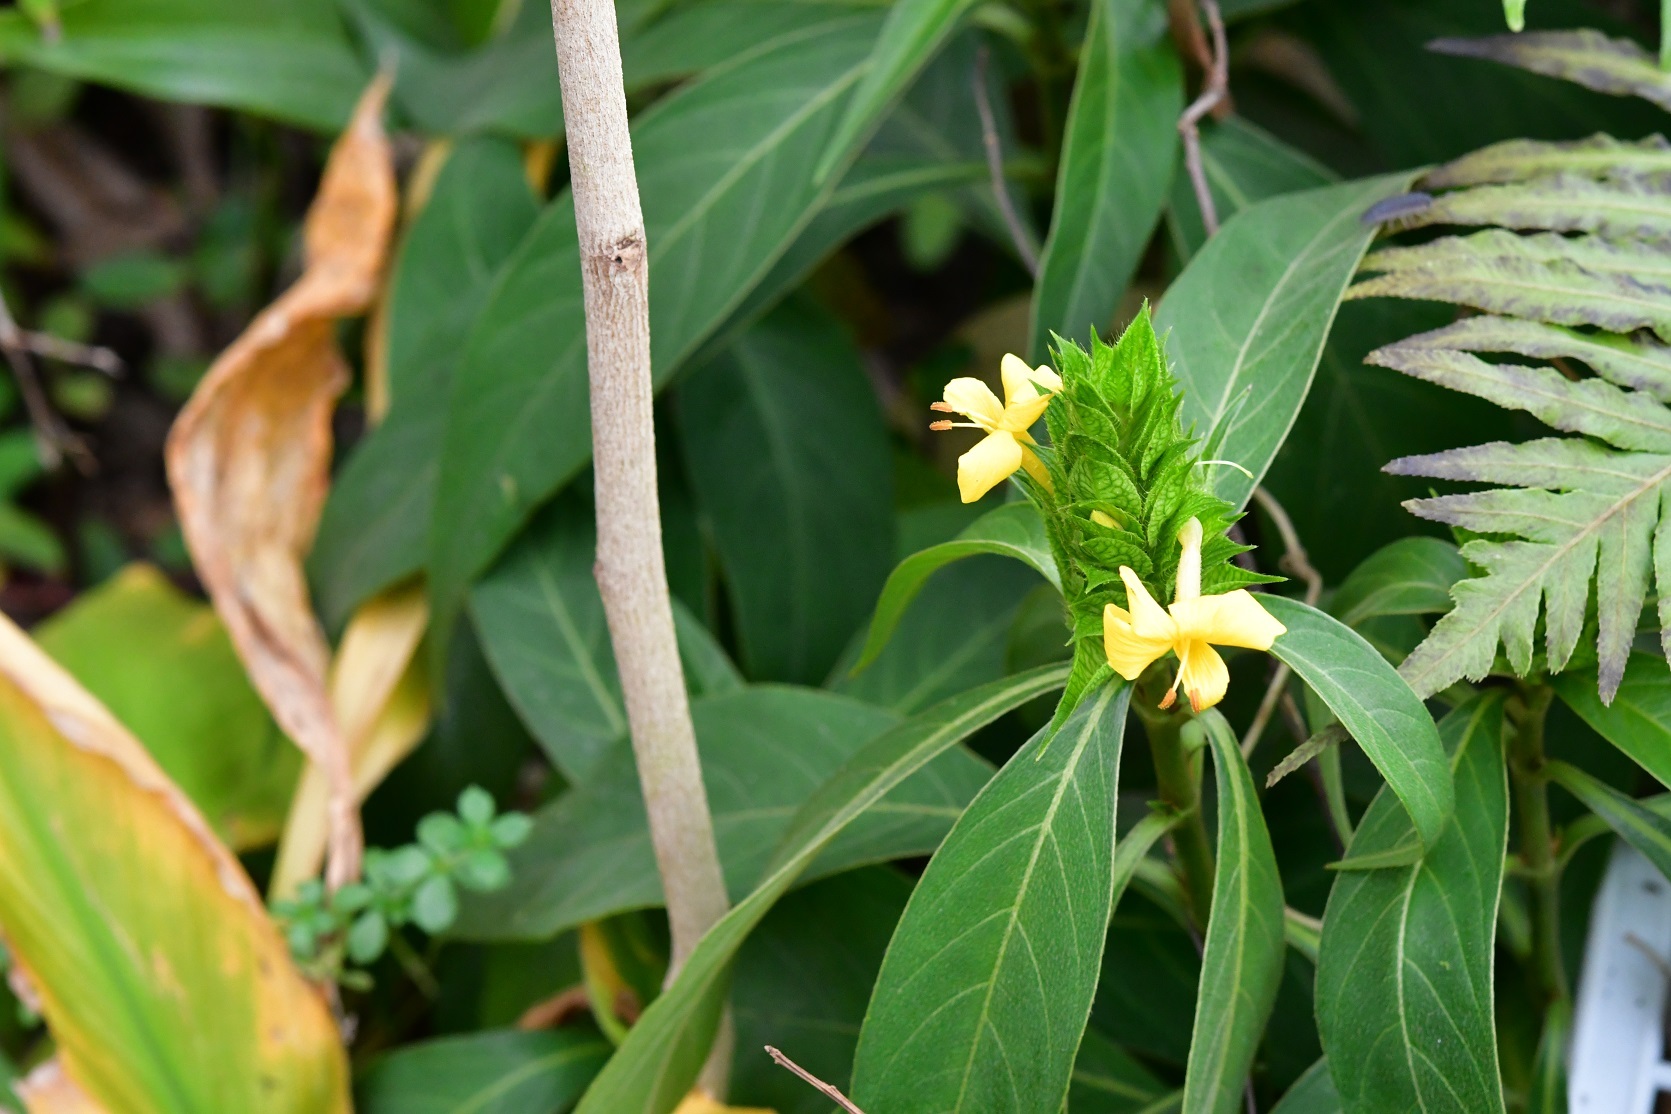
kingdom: Plantae
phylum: Tracheophyta
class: Magnoliopsida
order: Lamiales
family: Acanthaceae
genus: Barleria
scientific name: Barleria oenotheroides
